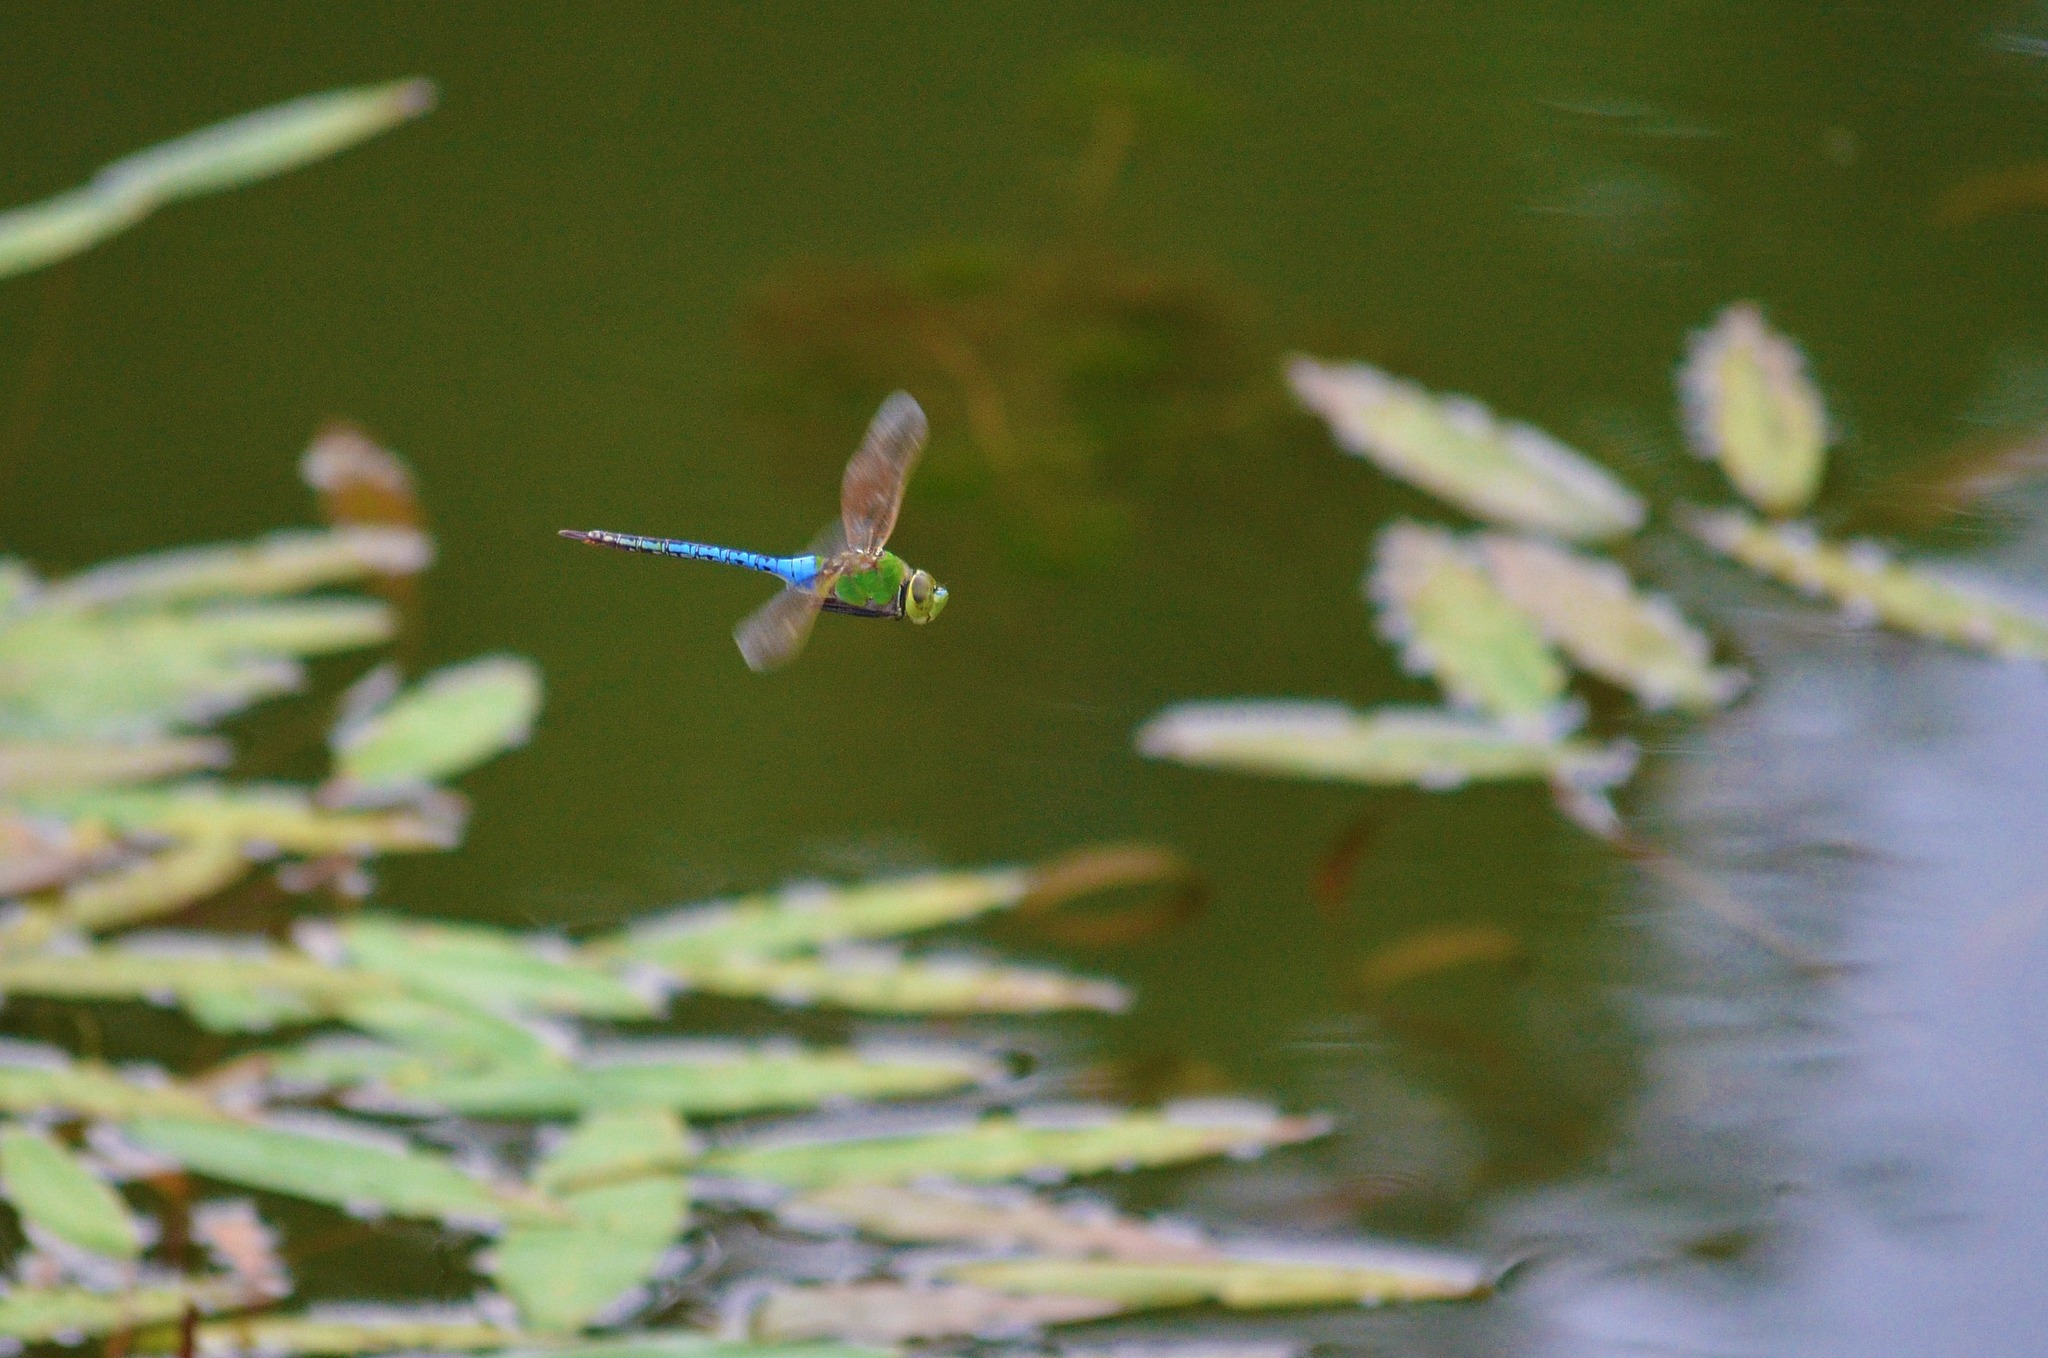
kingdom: Animalia
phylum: Arthropoda
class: Insecta
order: Odonata
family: Aeshnidae
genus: Anax
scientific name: Anax junius
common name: Common green darner
